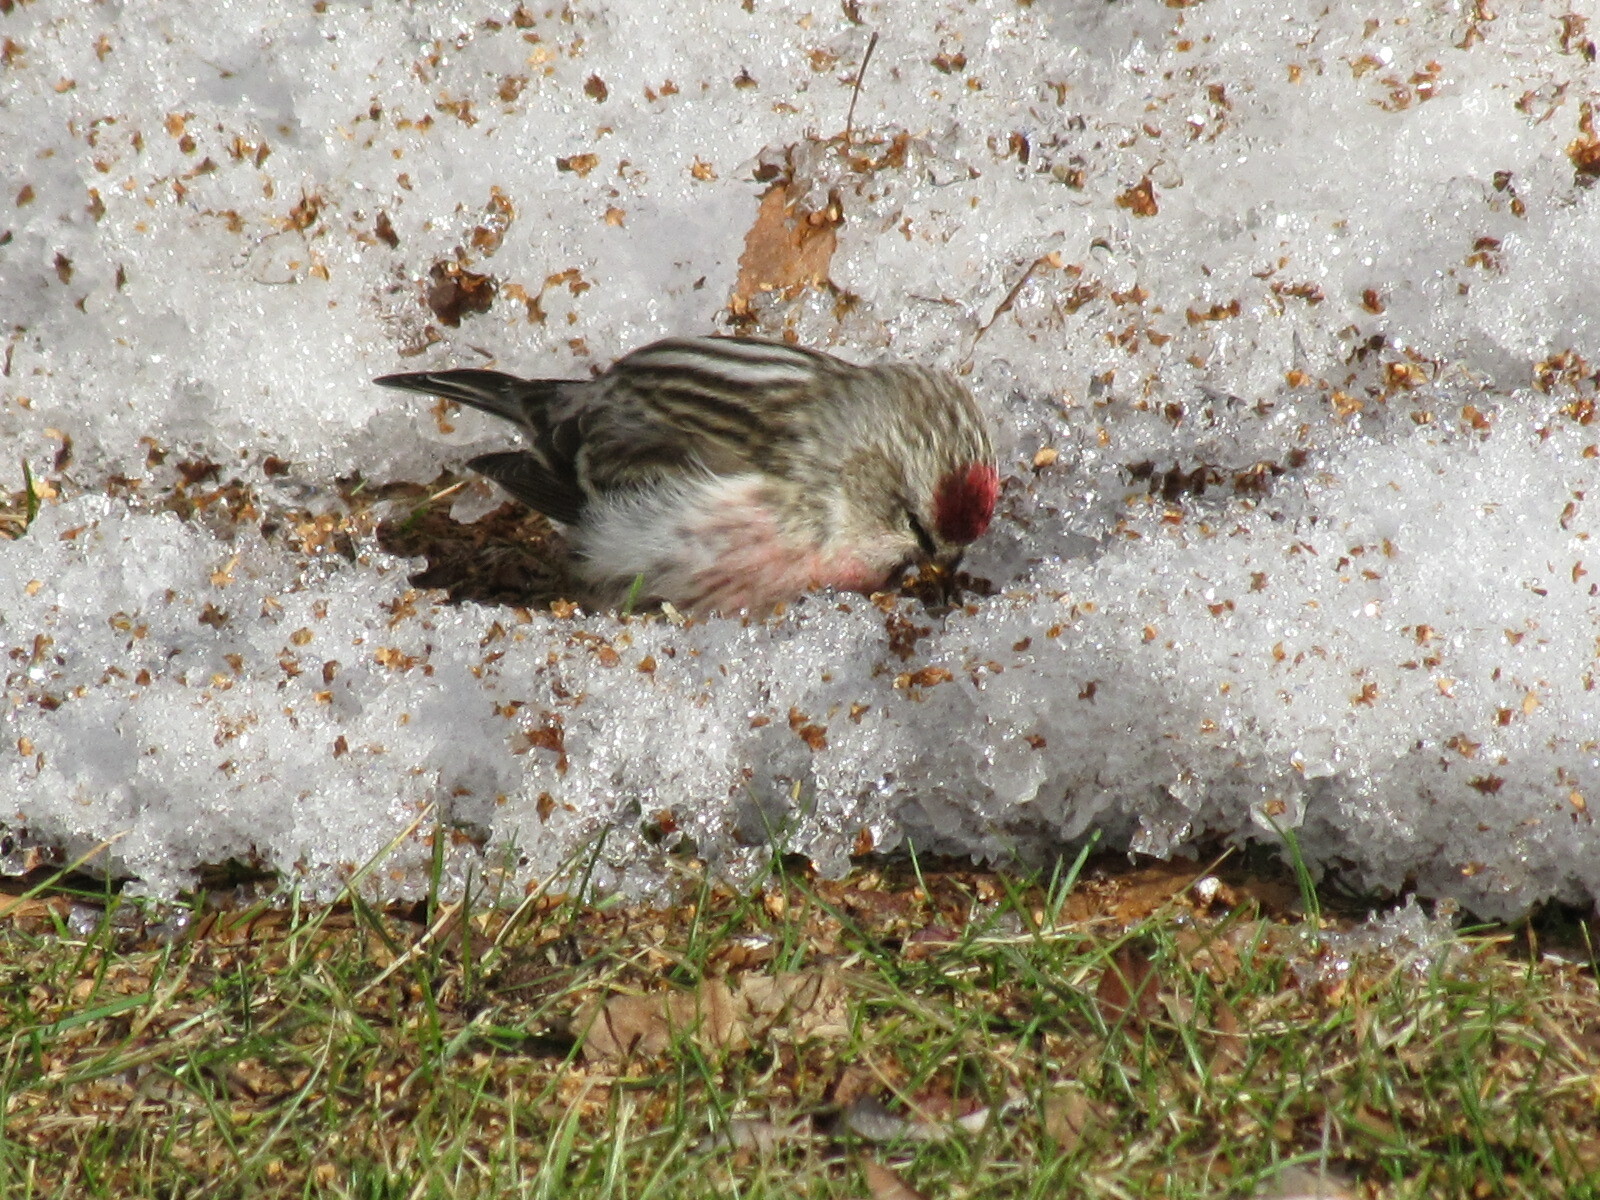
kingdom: Animalia
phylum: Chordata
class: Aves
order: Passeriformes
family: Fringillidae
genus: Acanthis
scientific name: Acanthis flammea
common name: Common redpoll
